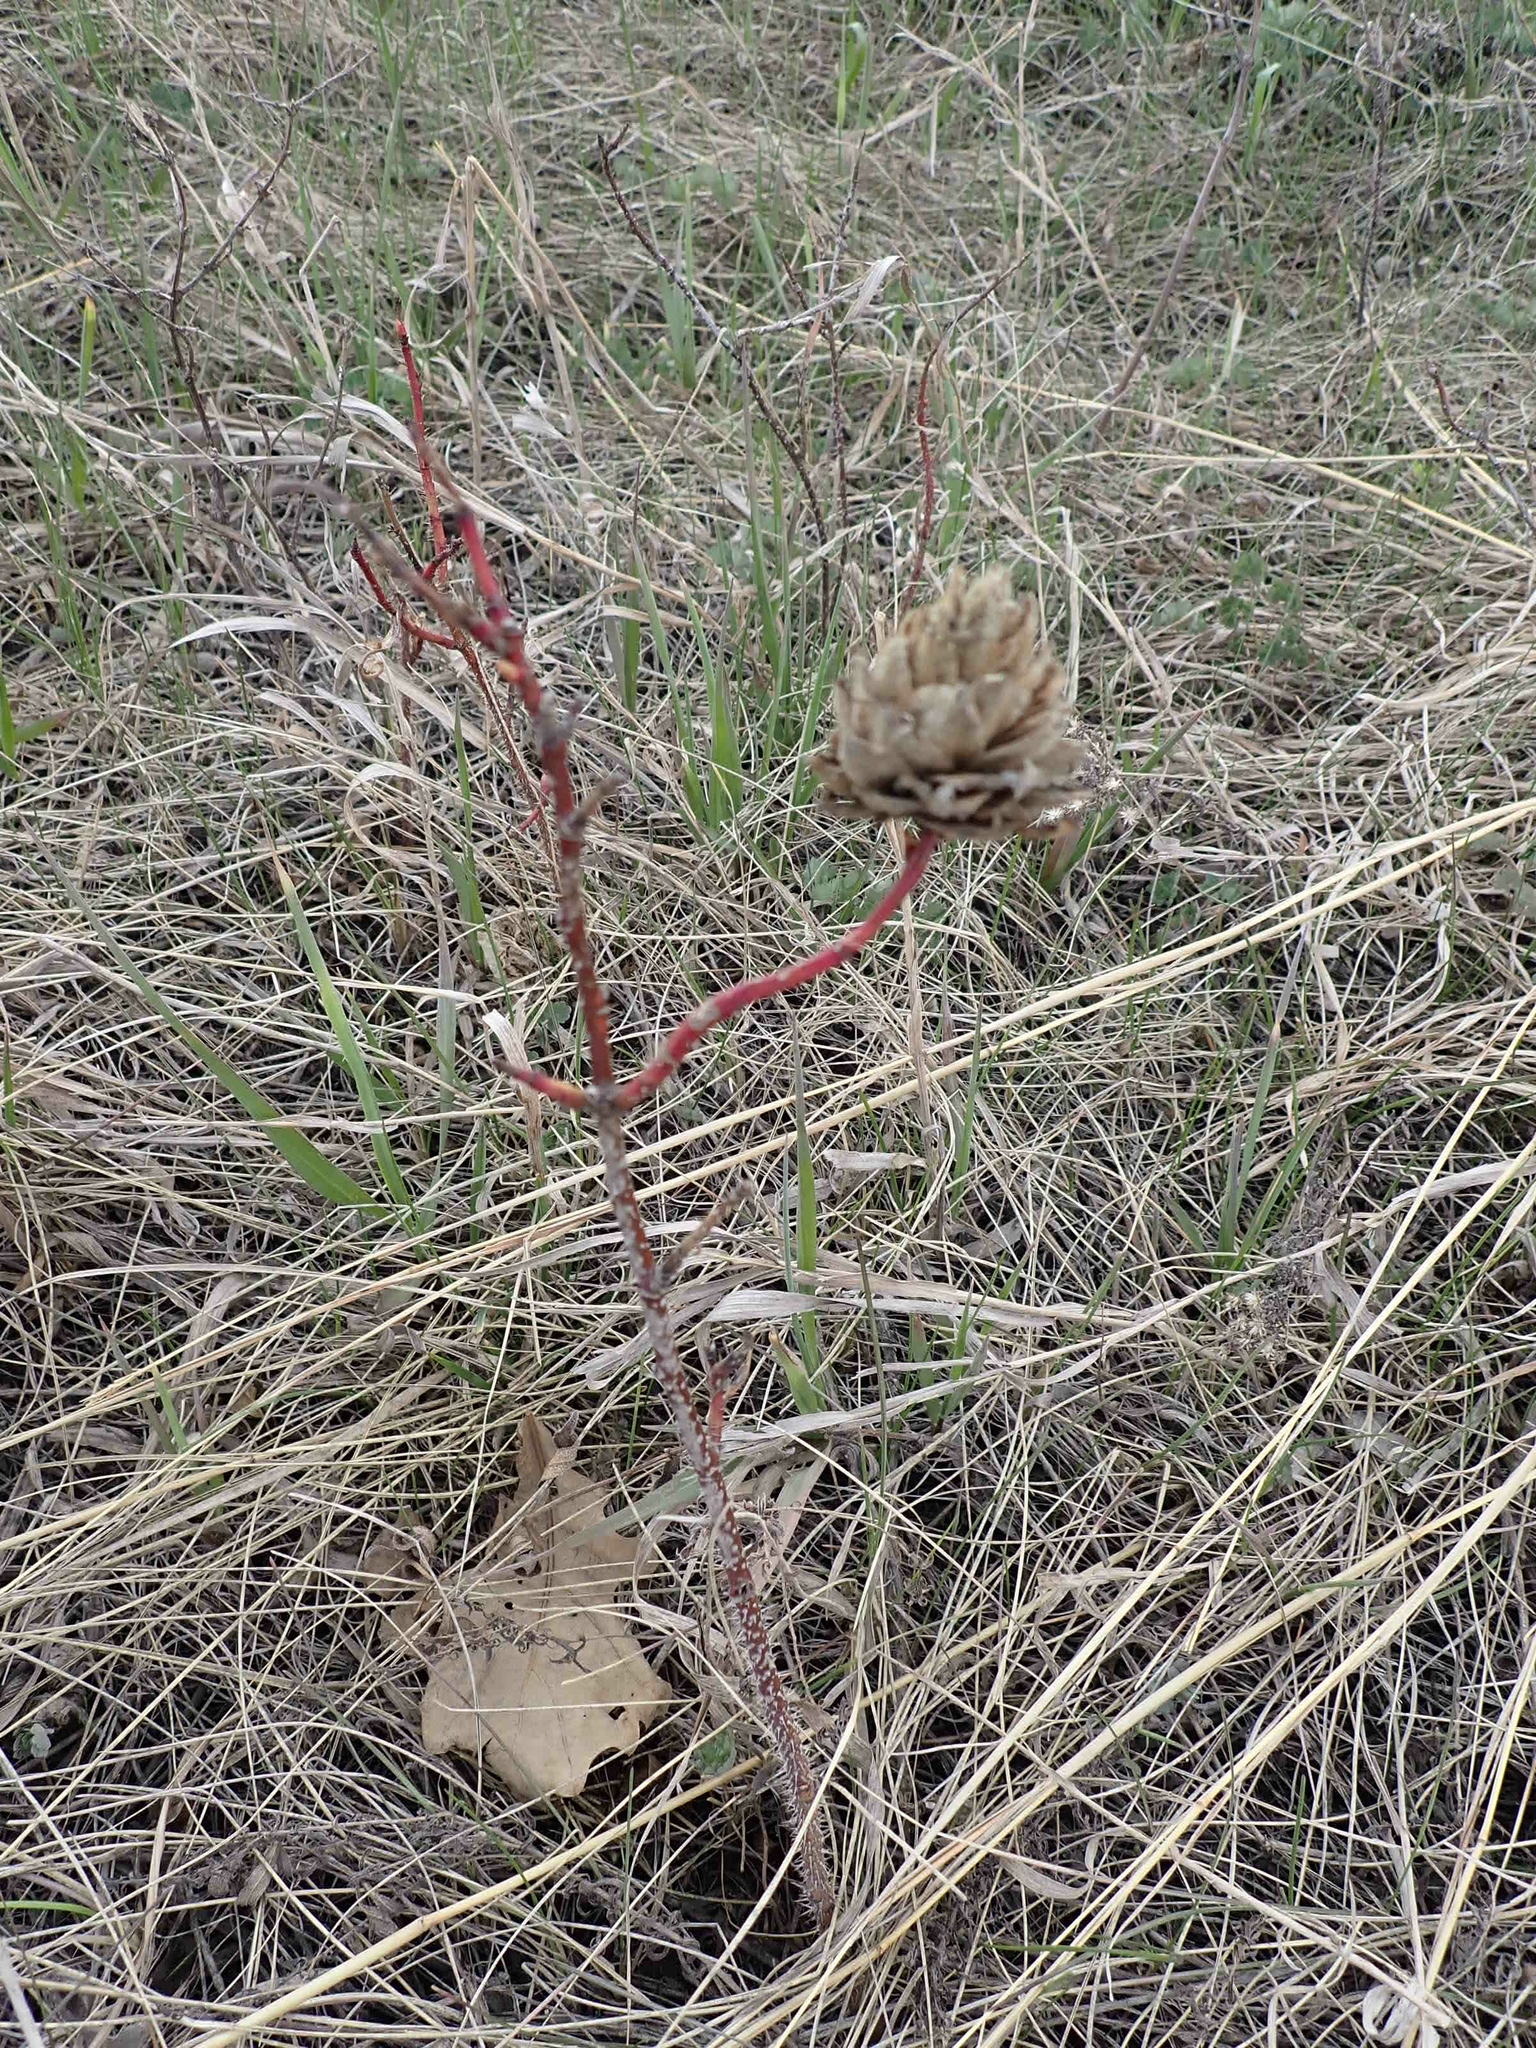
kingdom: Animalia
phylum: Arthropoda
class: Insecta
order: Diptera
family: Cecidomyiidae
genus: Rabdophaga
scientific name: Rabdophaga rosacea
